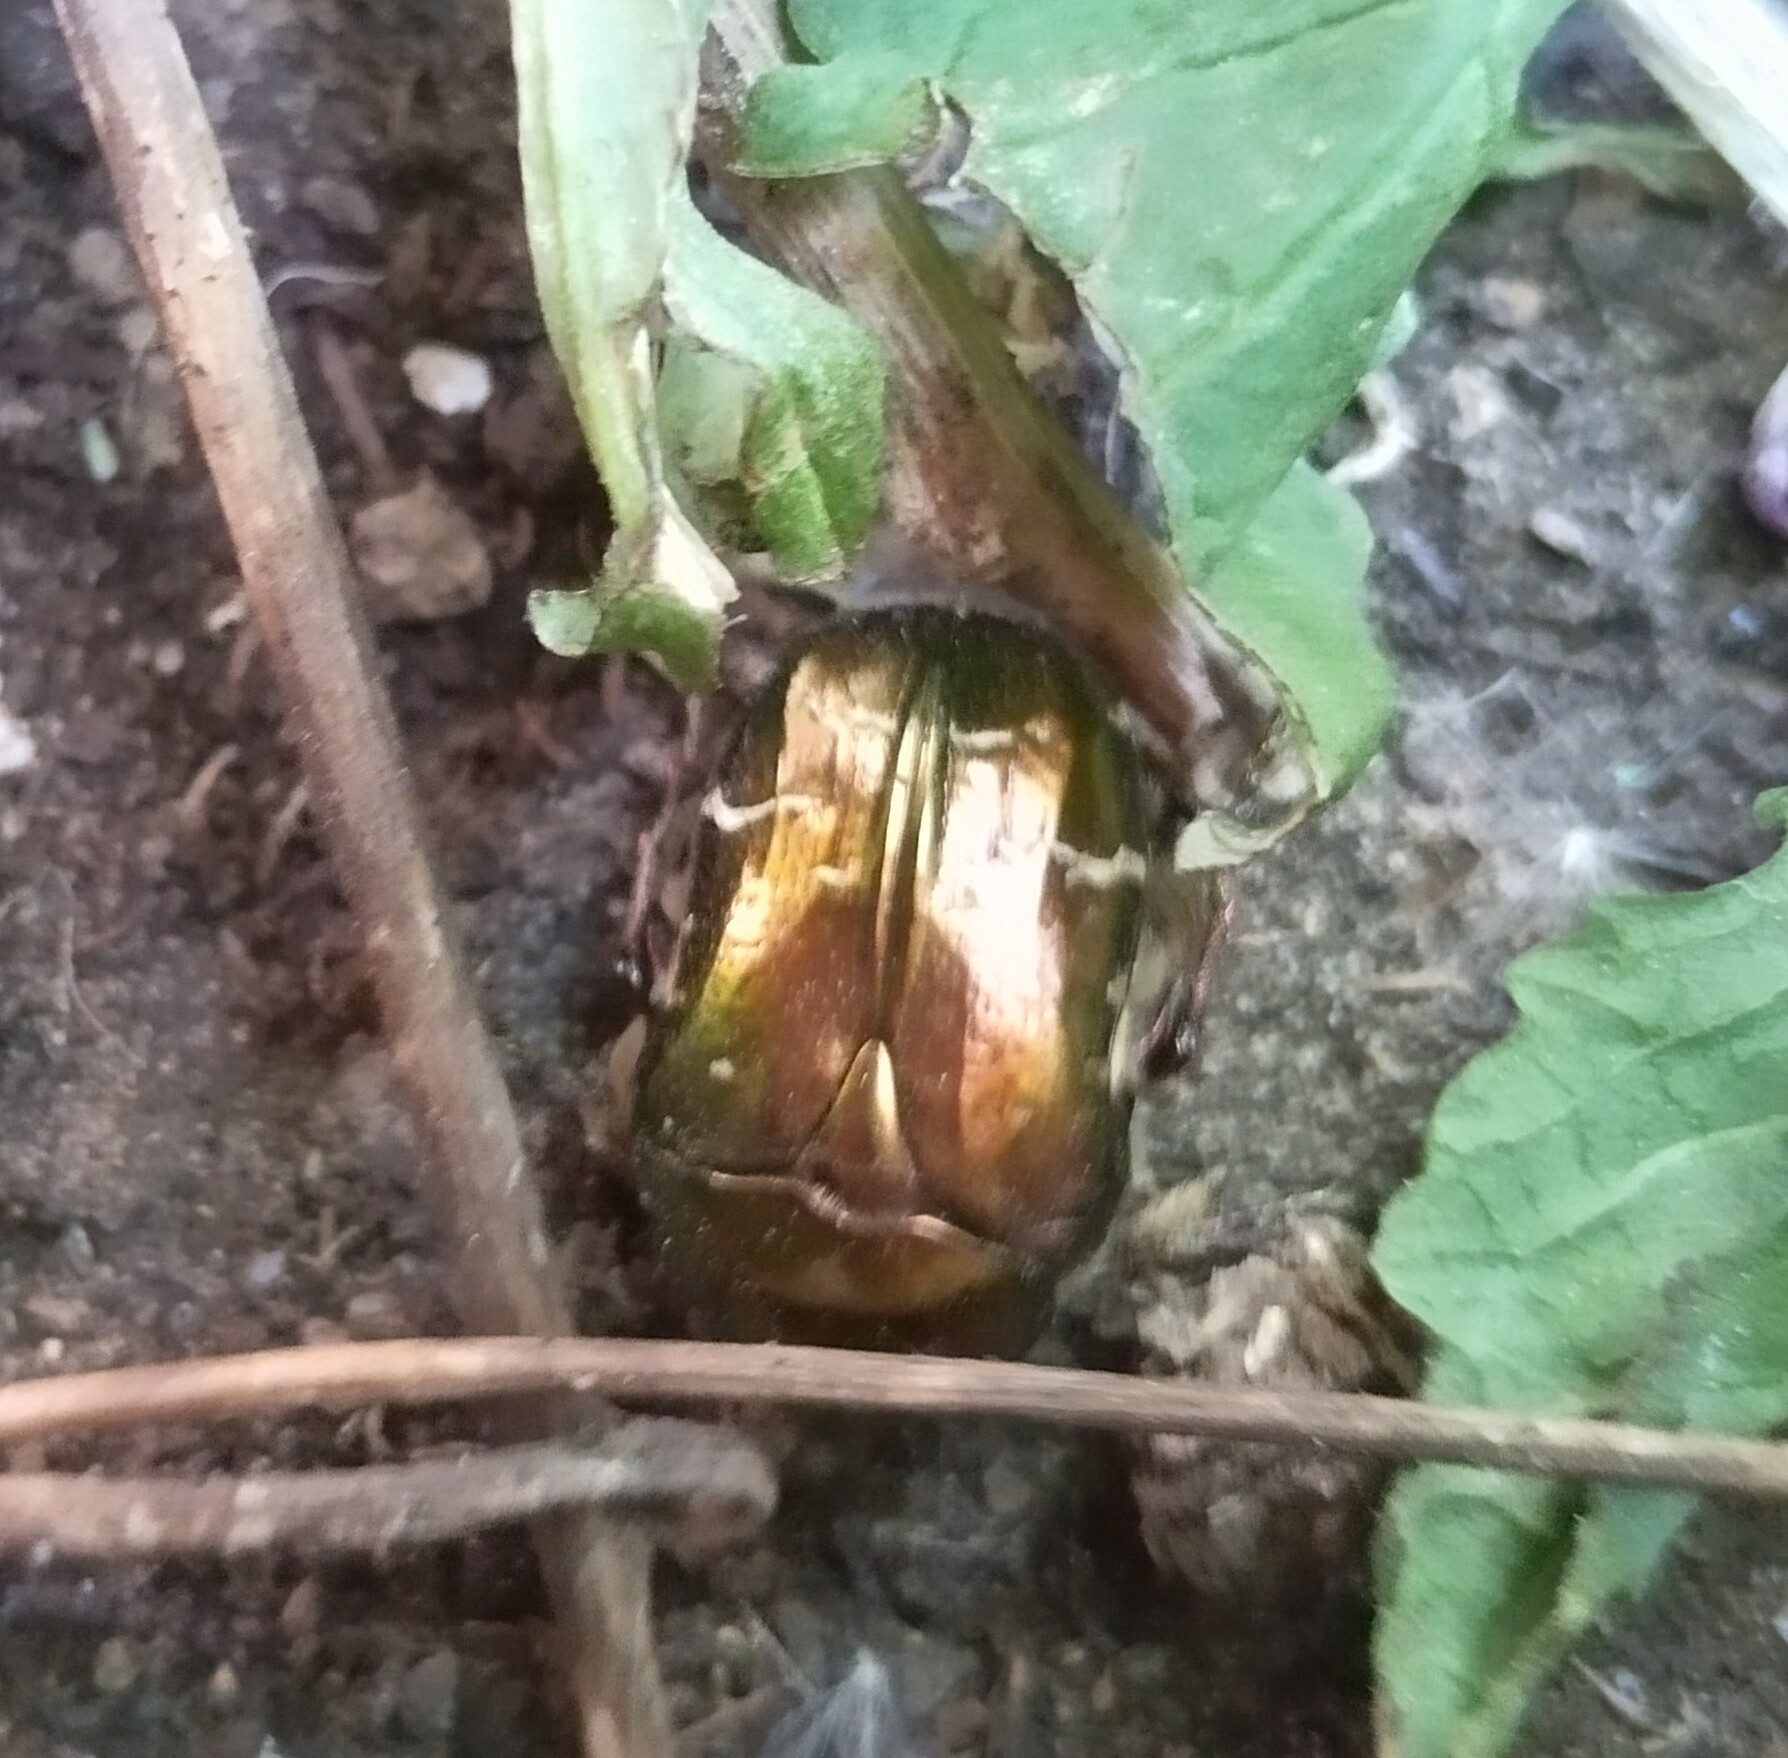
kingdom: Animalia
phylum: Arthropoda
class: Insecta
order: Coleoptera
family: Scarabaeidae
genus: Cetonia
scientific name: Cetonia aurata
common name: Rose chafer
